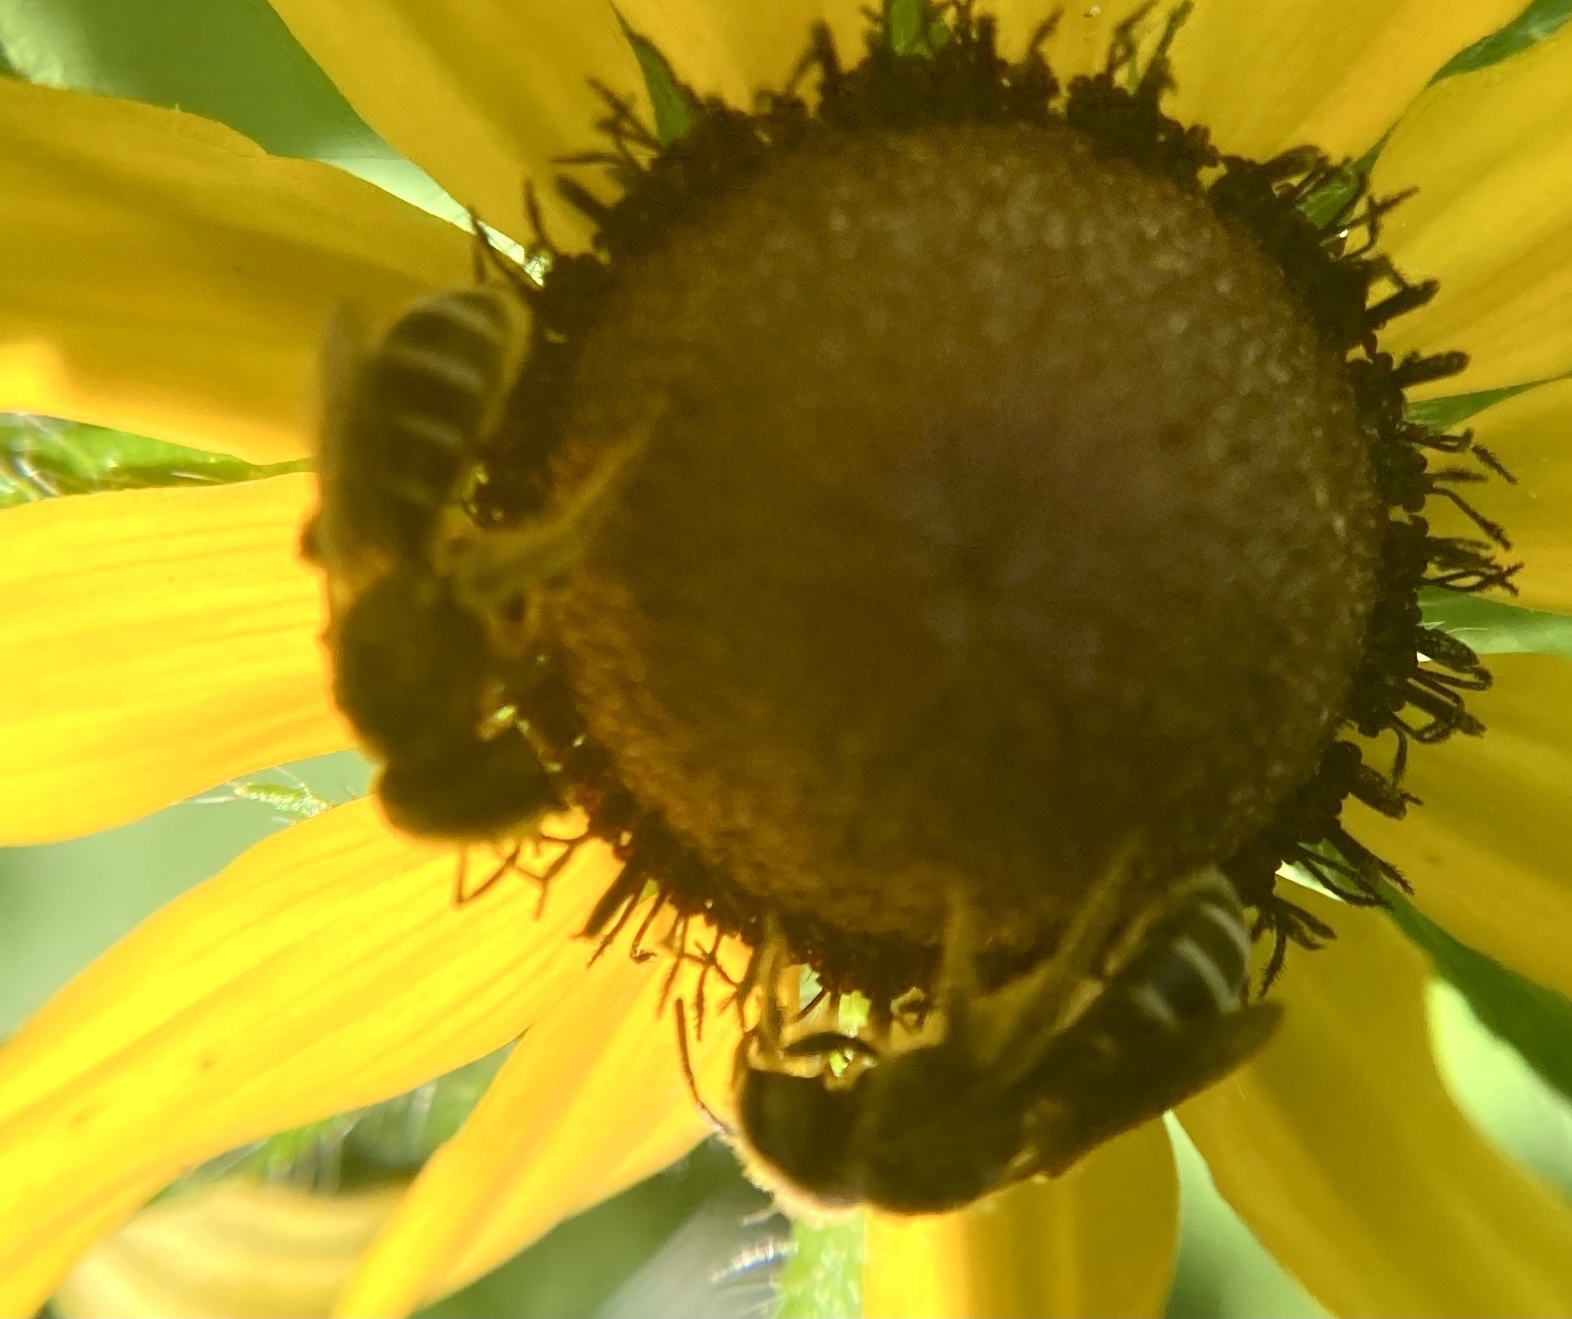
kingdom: Animalia
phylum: Arthropoda
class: Insecta
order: Hymenoptera
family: Halictidae
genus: Halictus
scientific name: Halictus ligatus
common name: Ligated furrow bee
